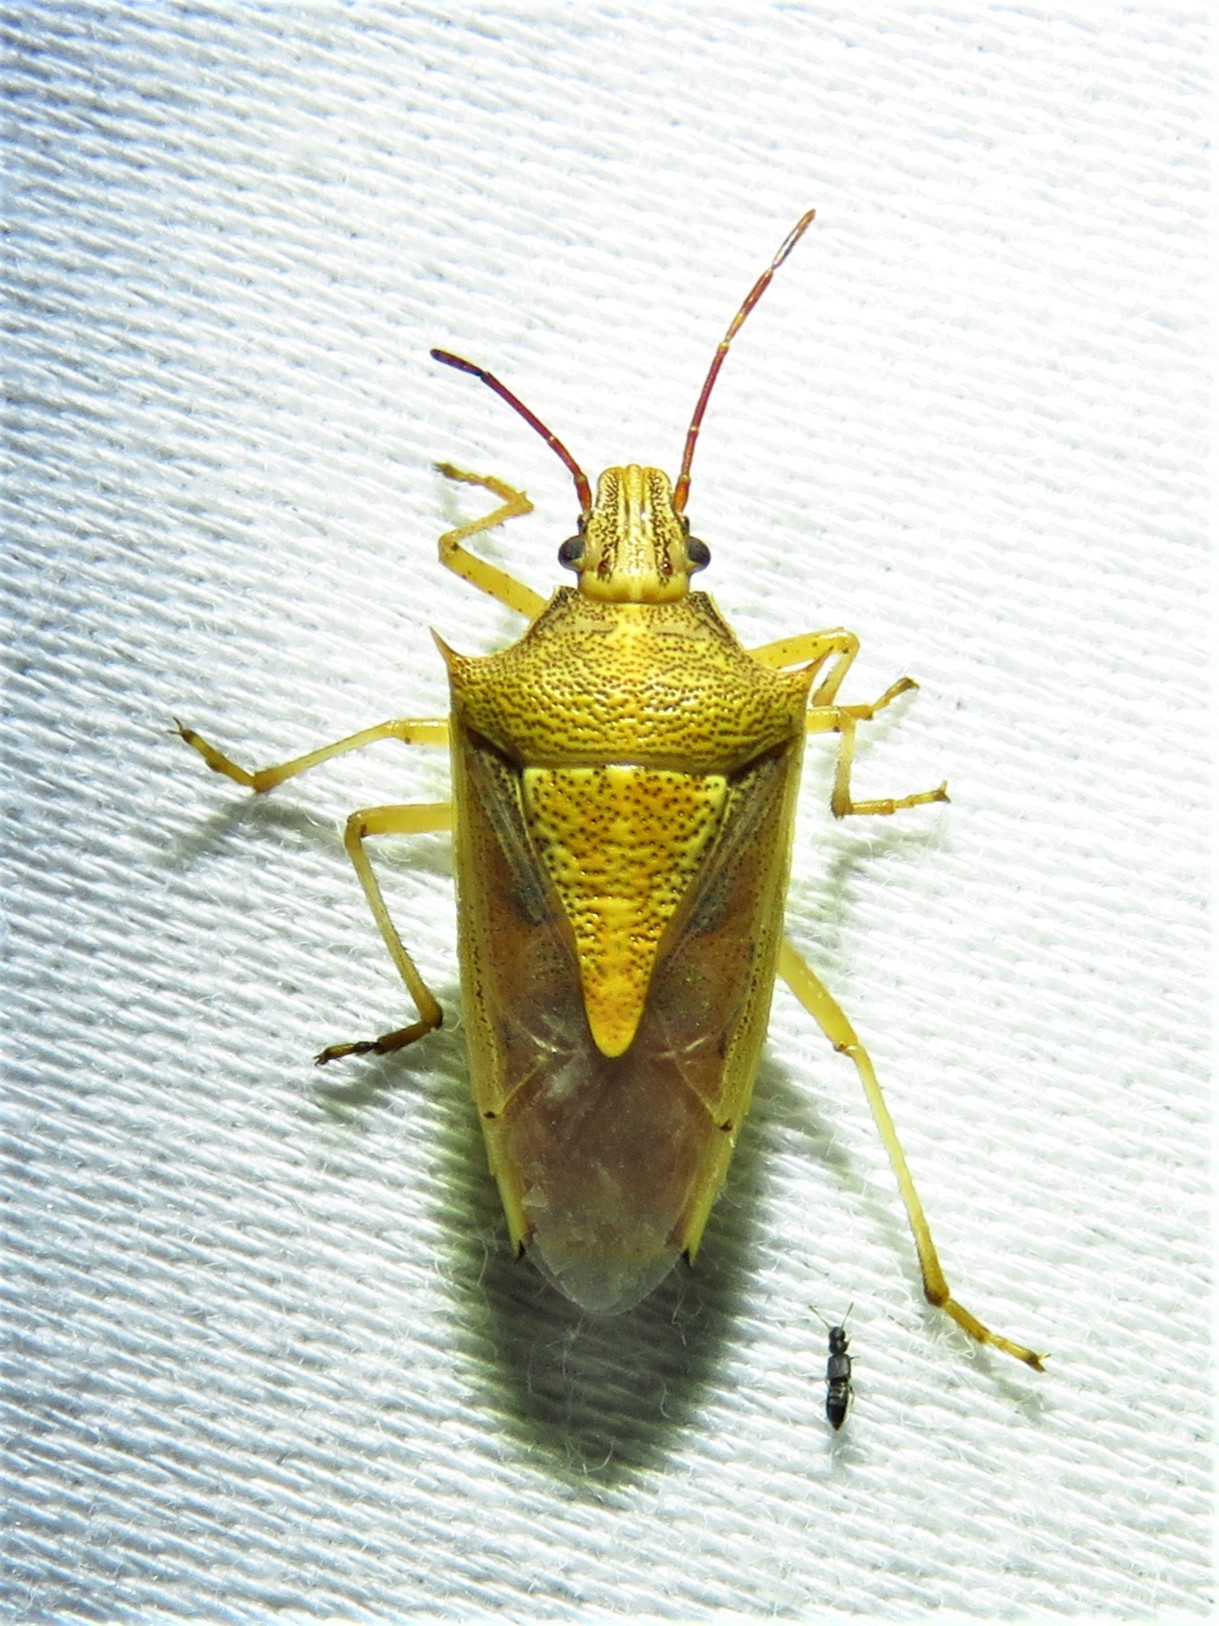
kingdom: Animalia
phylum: Arthropoda
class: Insecta
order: Hemiptera
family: Pentatomidae
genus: Oebalus
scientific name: Oebalus pugnax
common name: Rice stink bug
